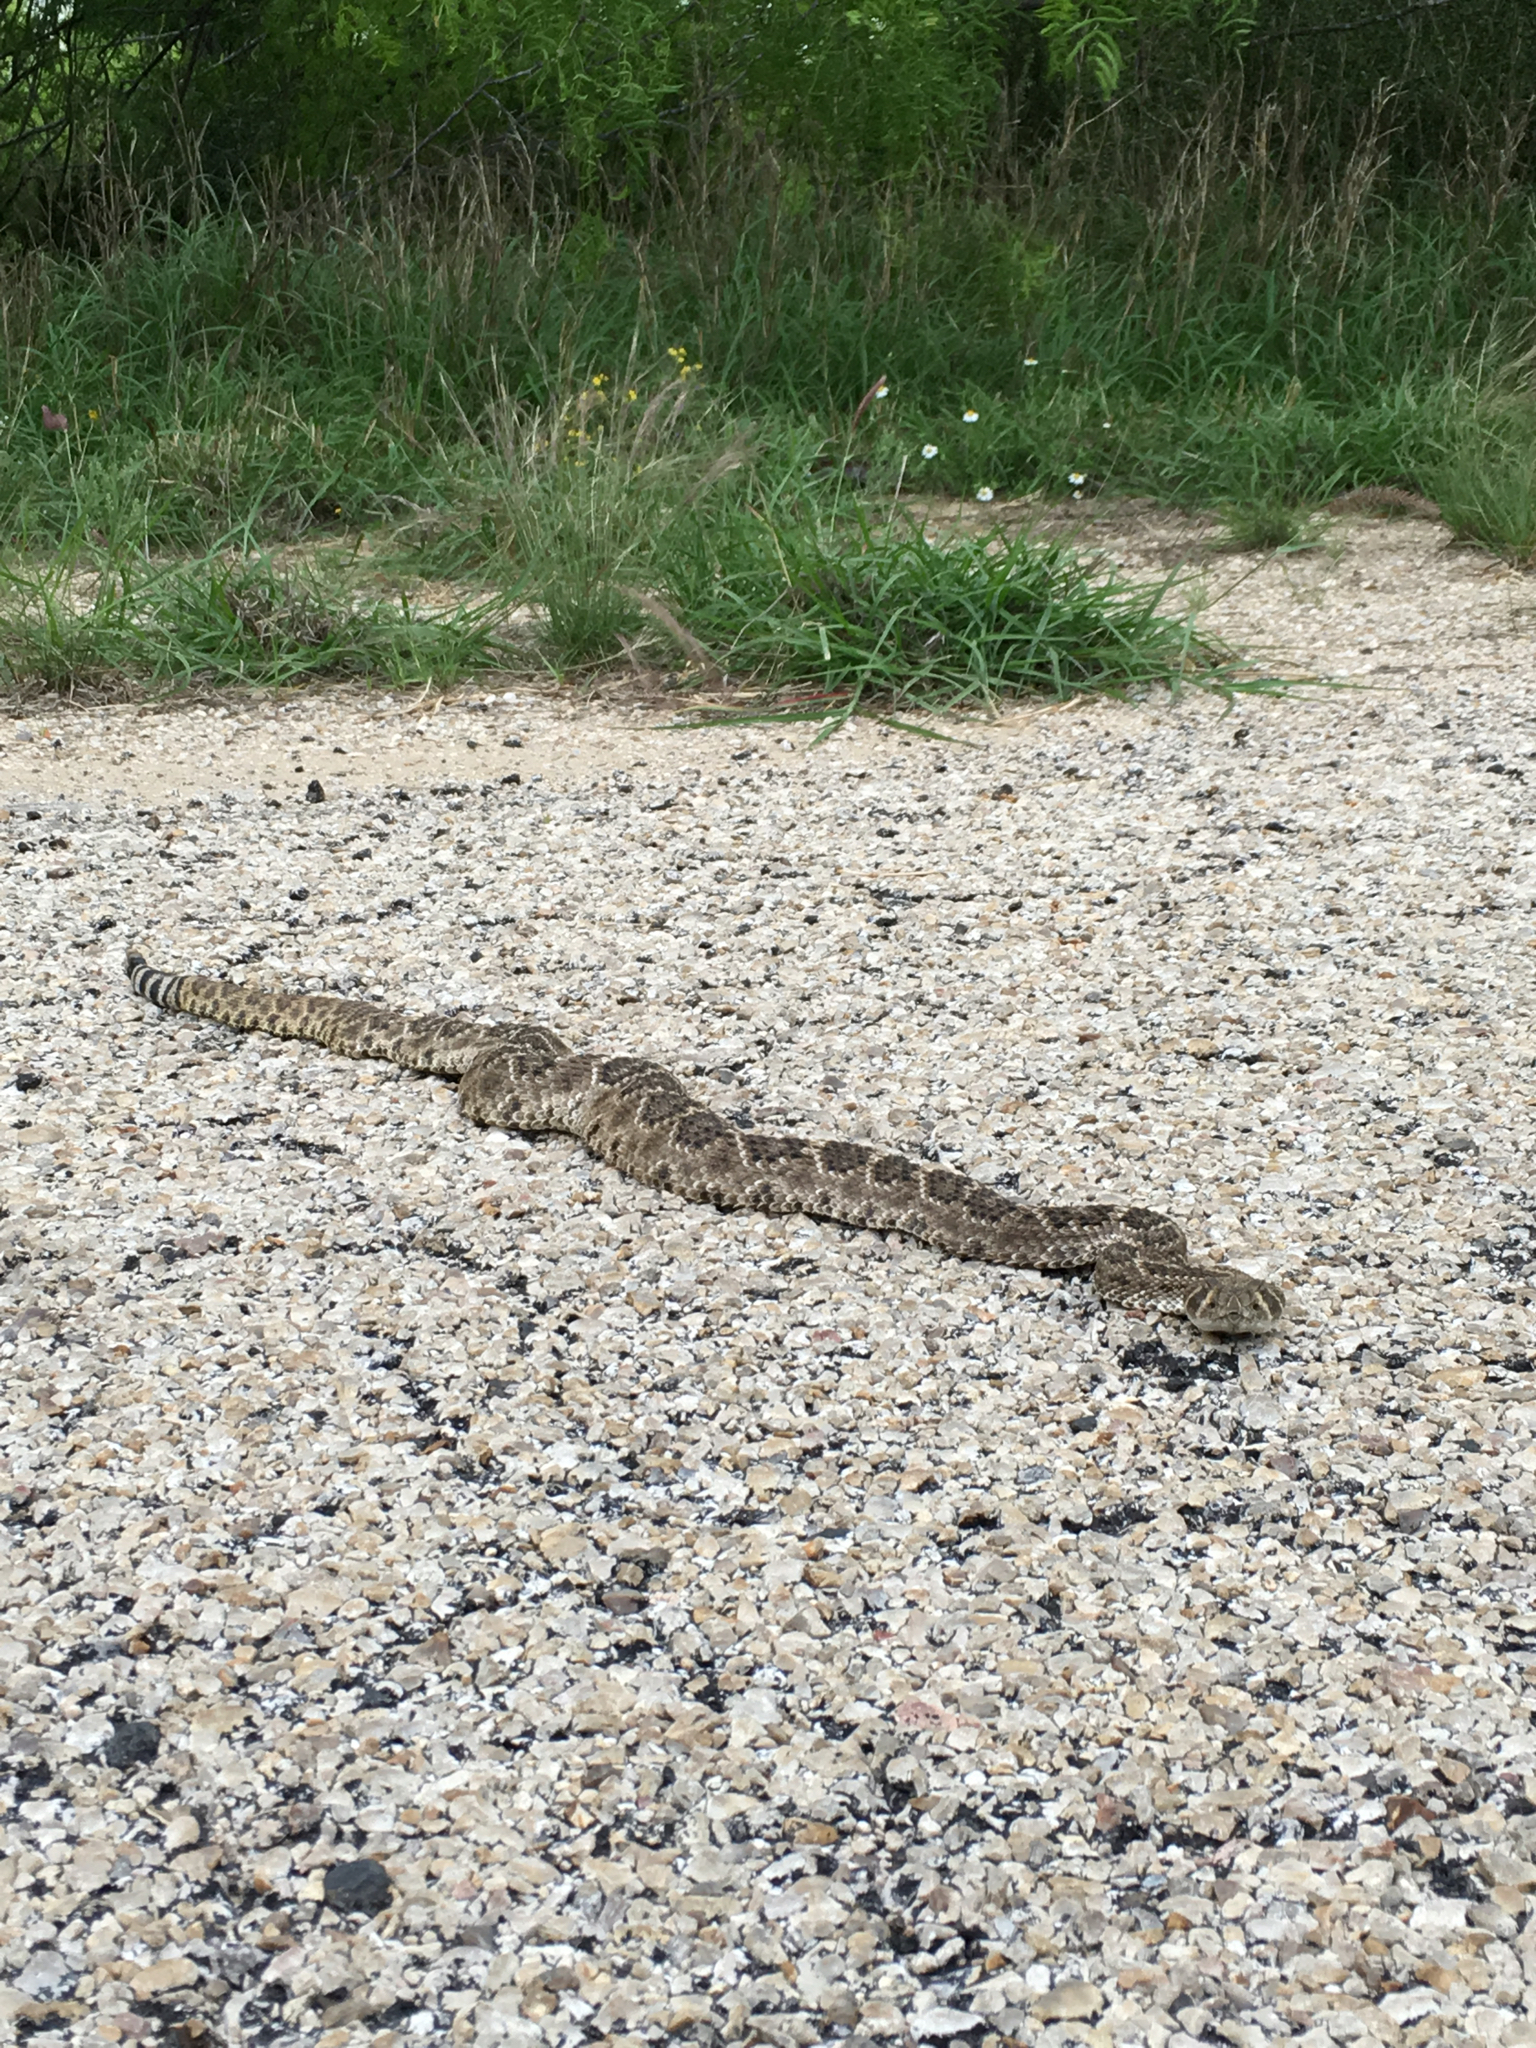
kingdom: Animalia
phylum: Chordata
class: Squamata
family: Viperidae
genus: Crotalus
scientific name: Crotalus atrox
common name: Western diamond-backed rattlesnake
